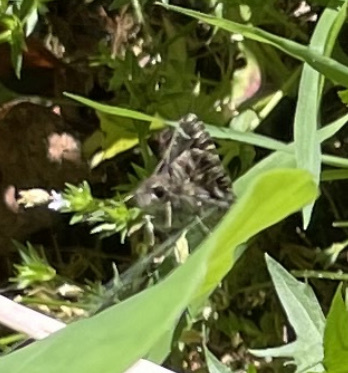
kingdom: Animalia
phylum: Arthropoda
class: Insecta
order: Lepidoptera
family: Hesperiidae
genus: Mastor
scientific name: Mastor nysa
